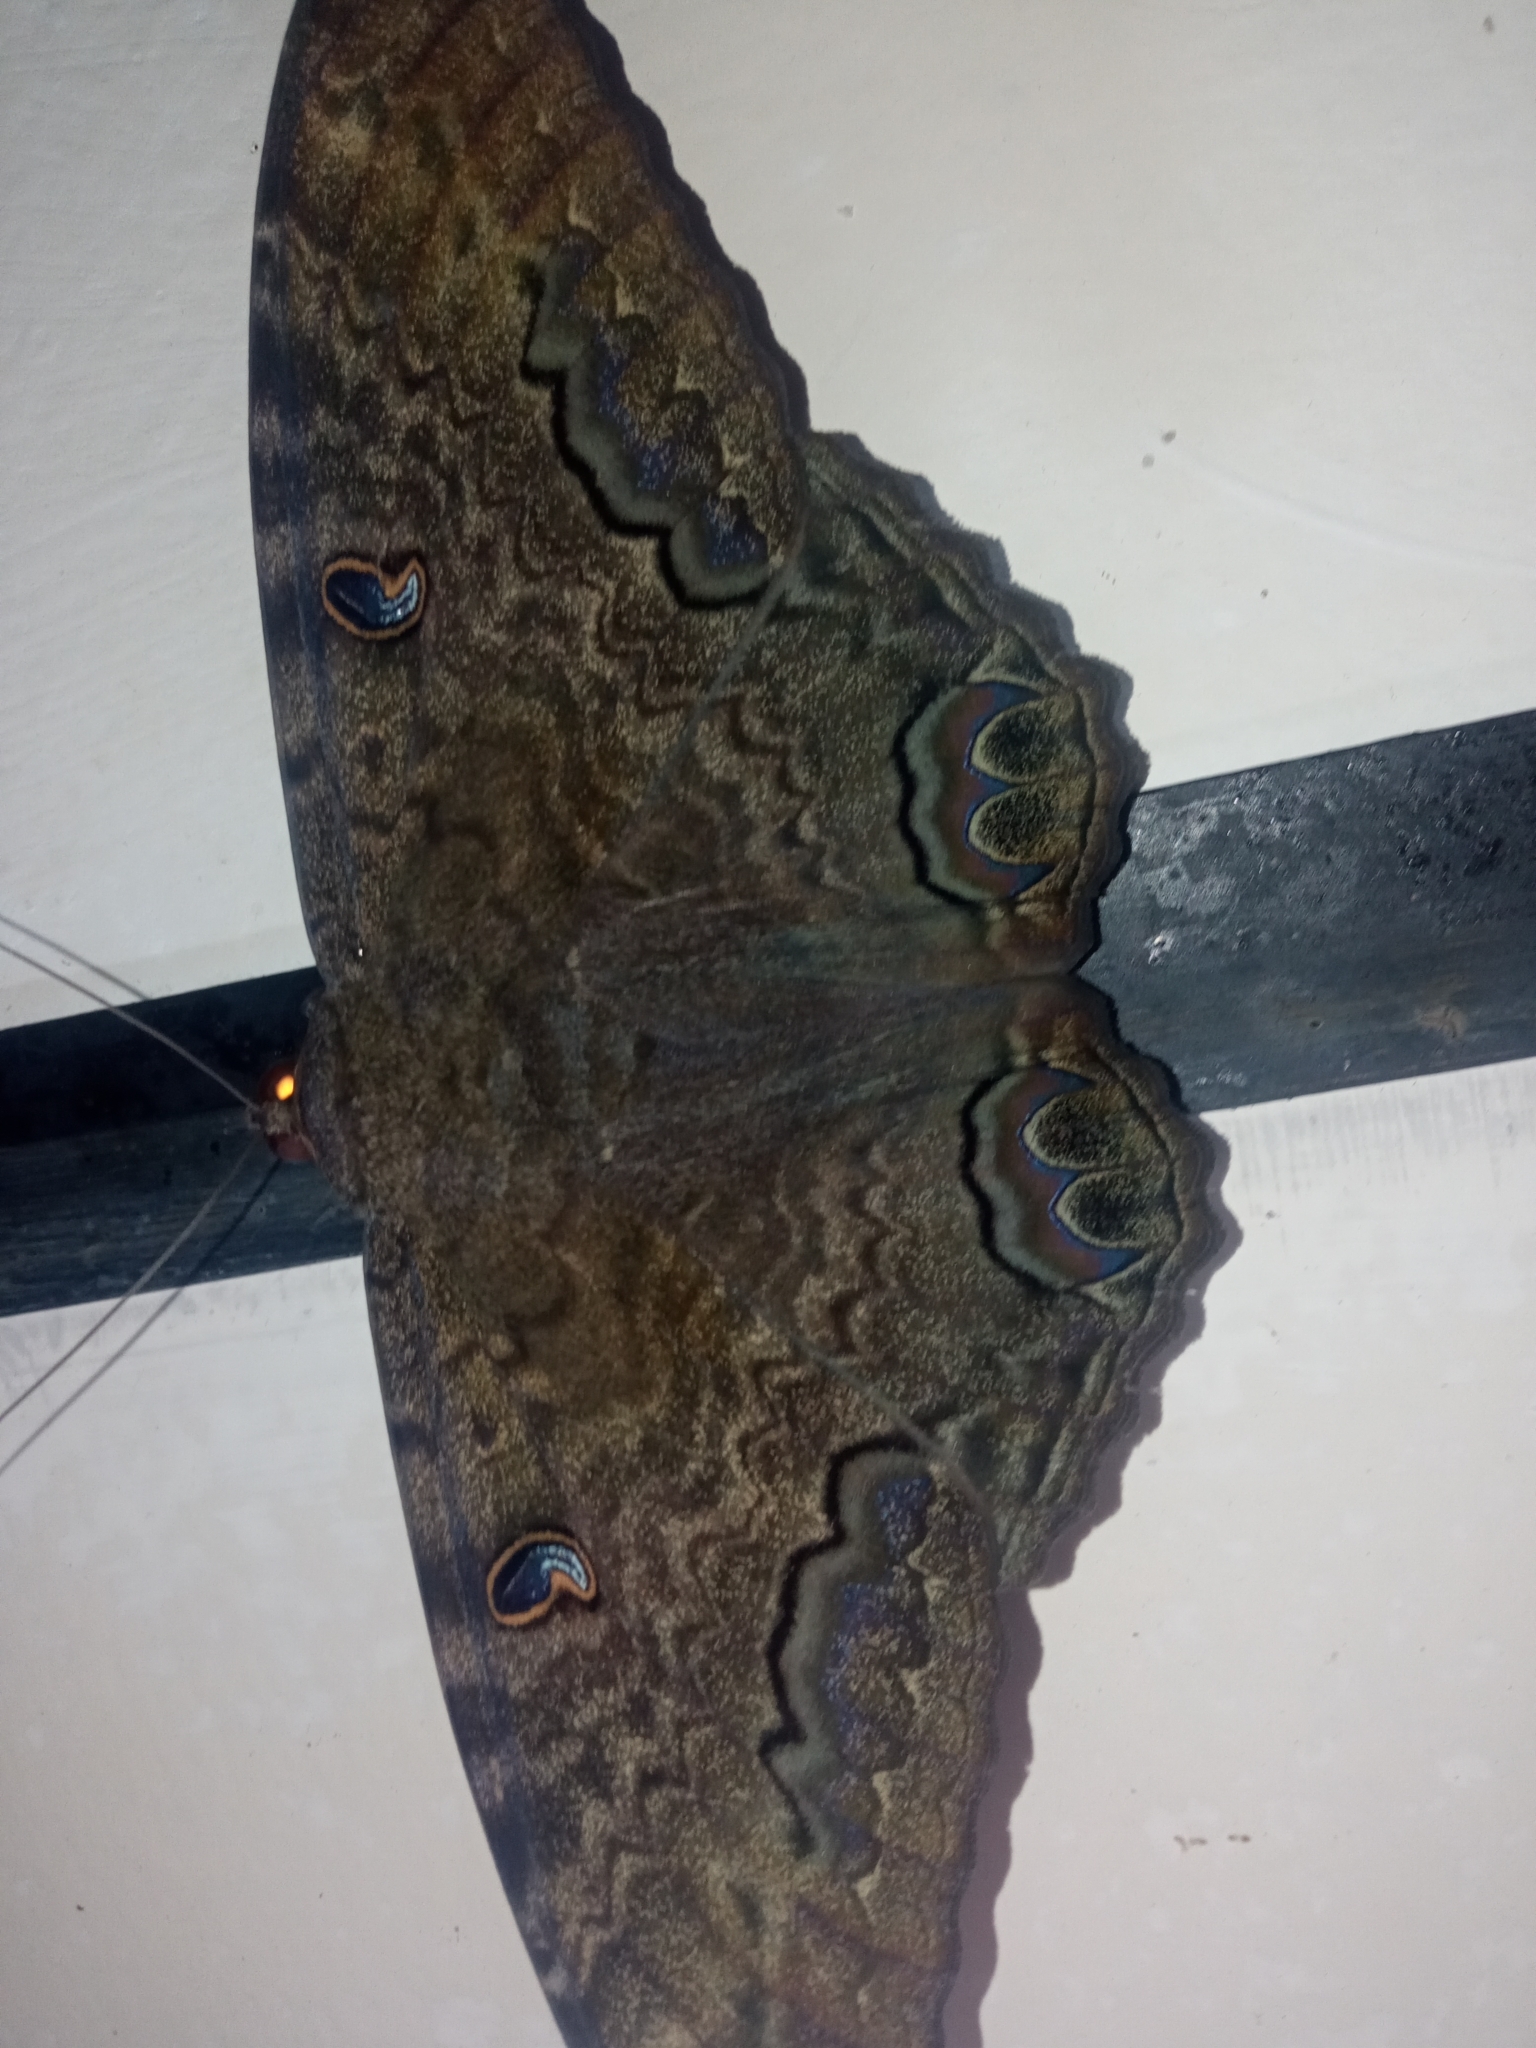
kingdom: Animalia
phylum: Arthropoda
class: Insecta
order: Lepidoptera
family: Erebidae
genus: Ascalapha
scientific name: Ascalapha odorata
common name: Black witch
